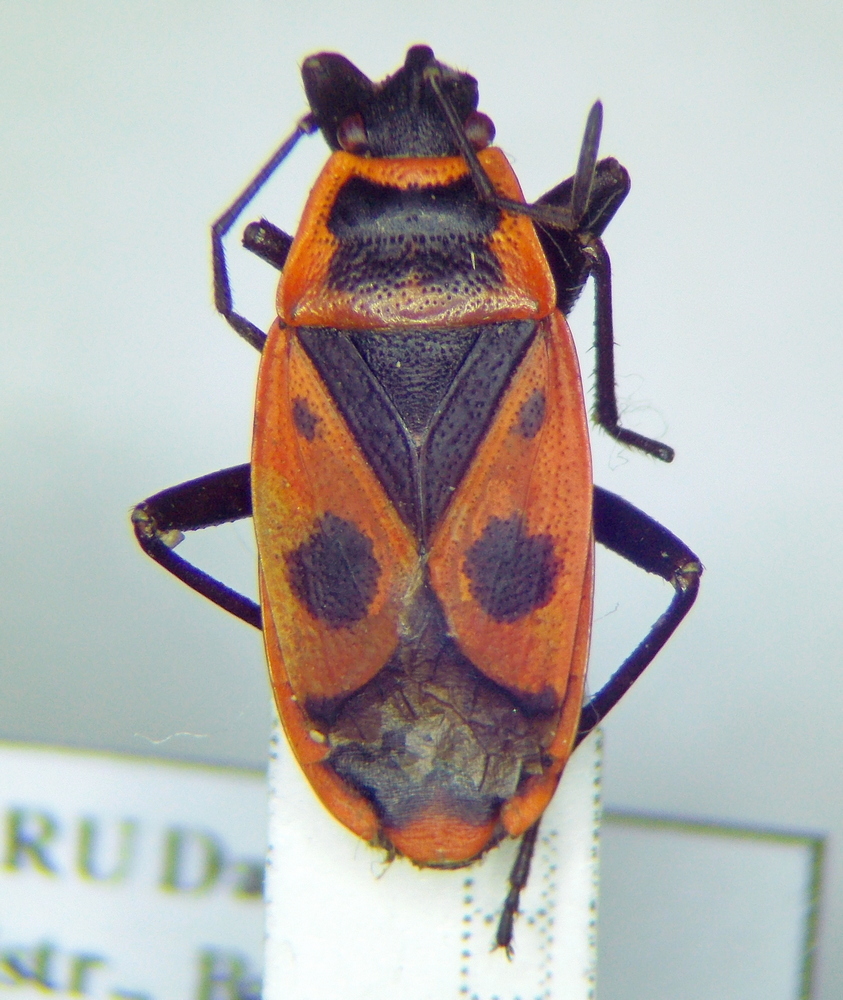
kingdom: Animalia
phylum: Arthropoda
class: Insecta
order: Hemiptera
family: Pyrrhocoridae
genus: Pyrrhocoris
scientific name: Pyrrhocoris apterus
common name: Firebug
